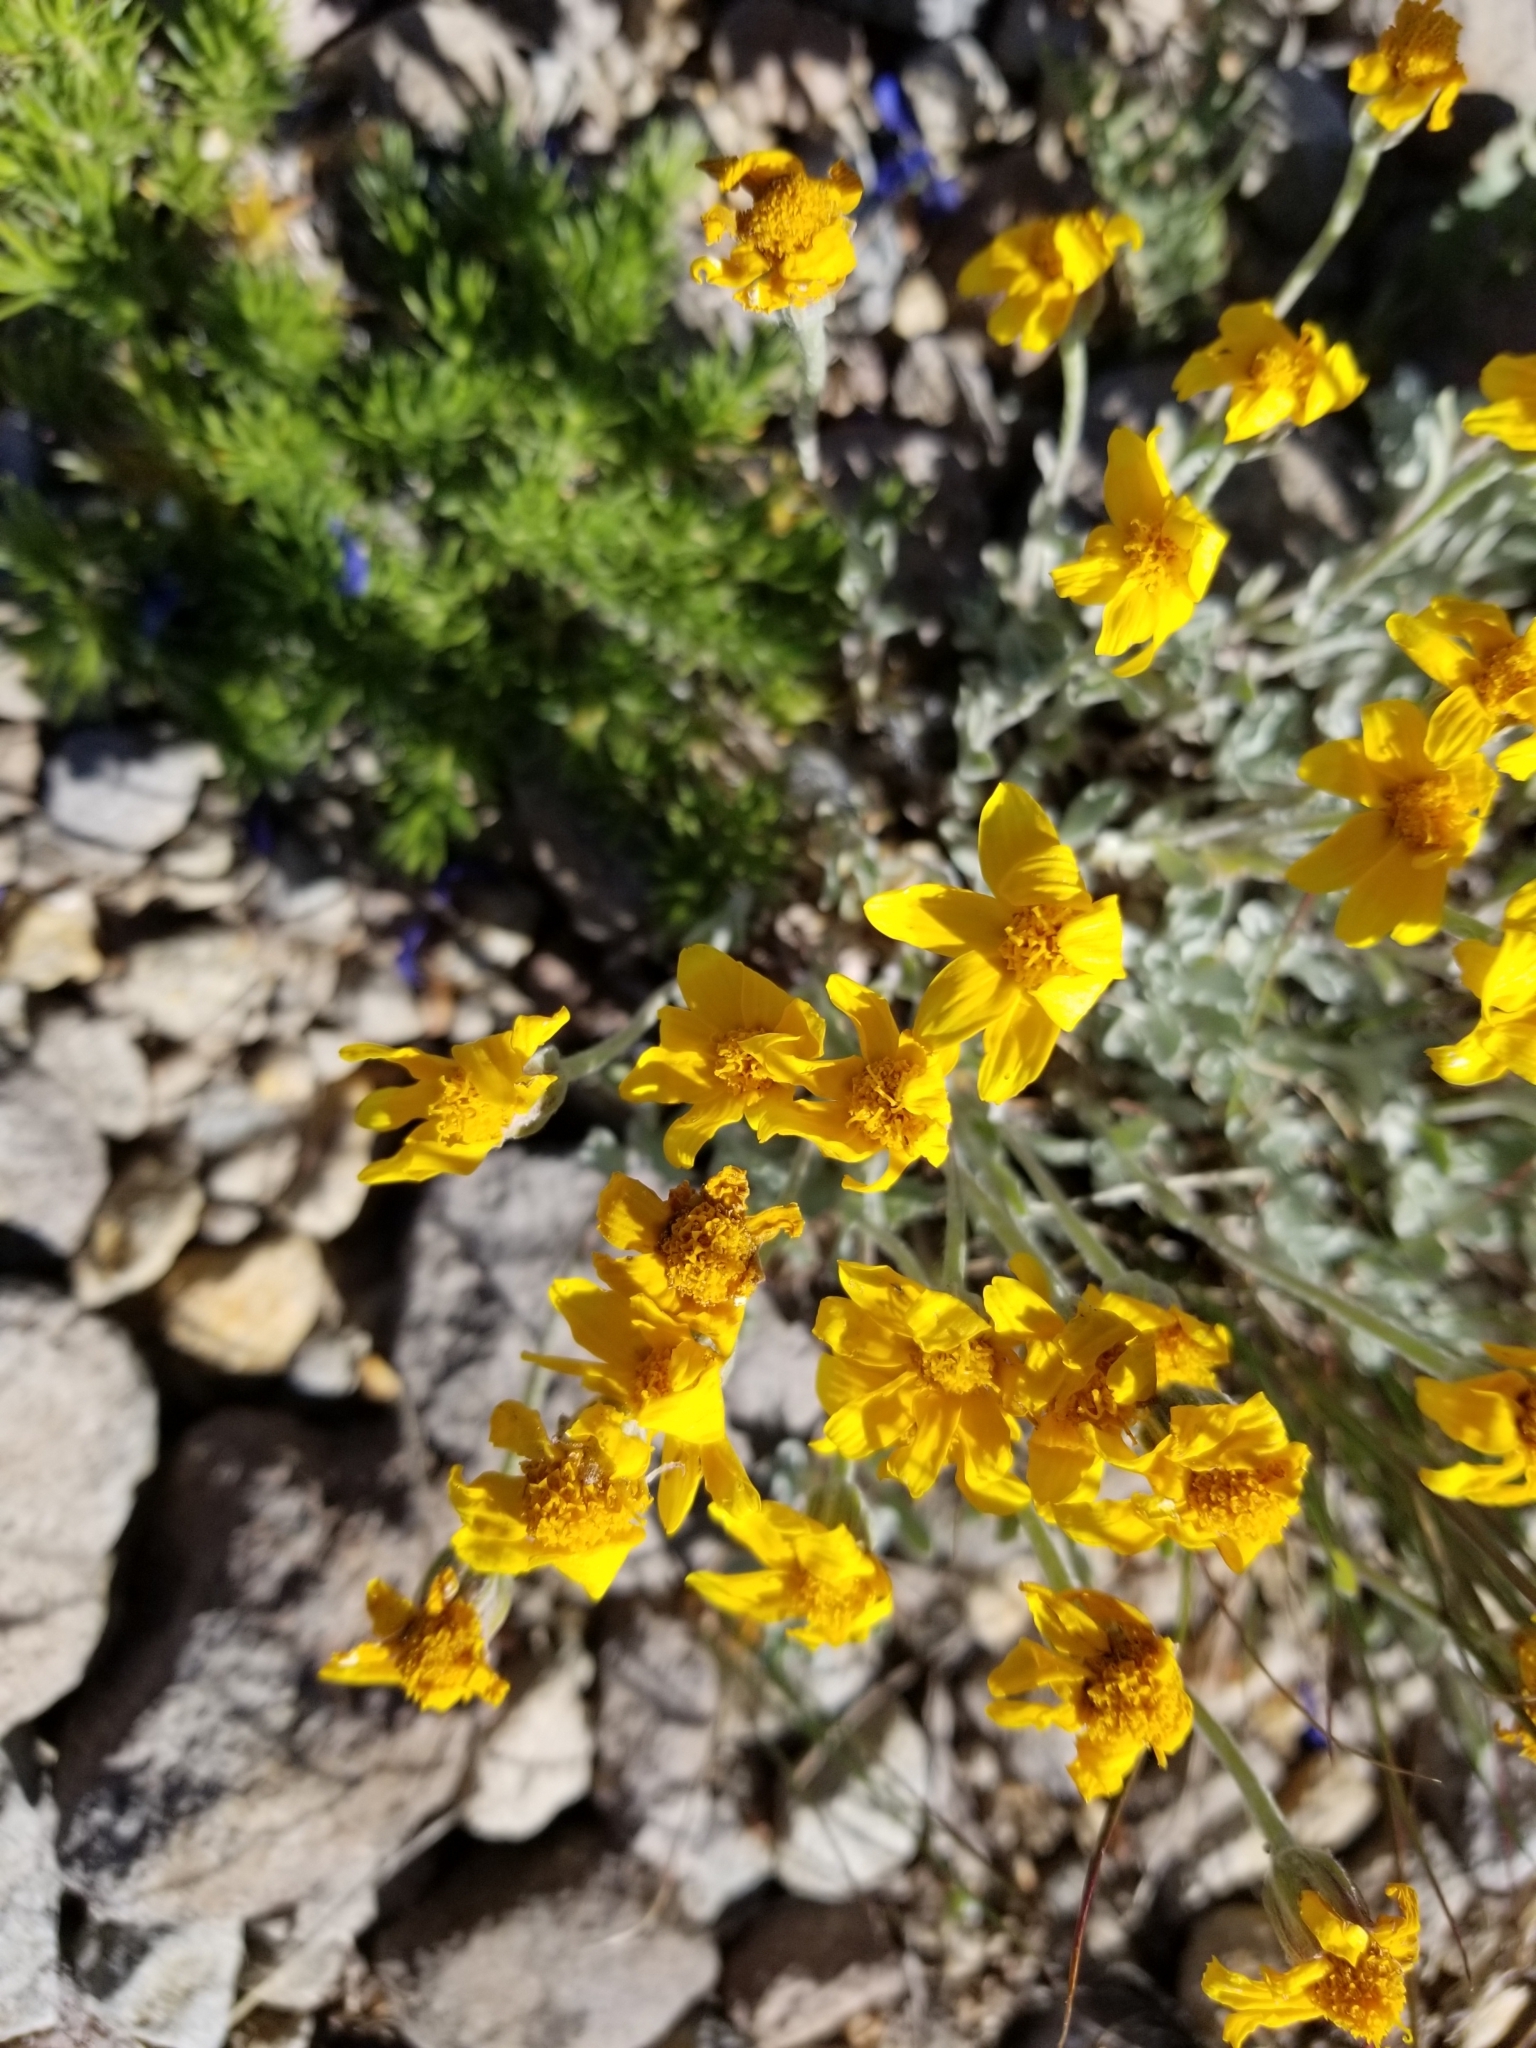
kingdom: Plantae
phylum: Tracheophyta
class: Magnoliopsida
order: Asterales
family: Asteraceae
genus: Eriophyllum
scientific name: Eriophyllum lanatum
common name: Common woolly-sunflower
